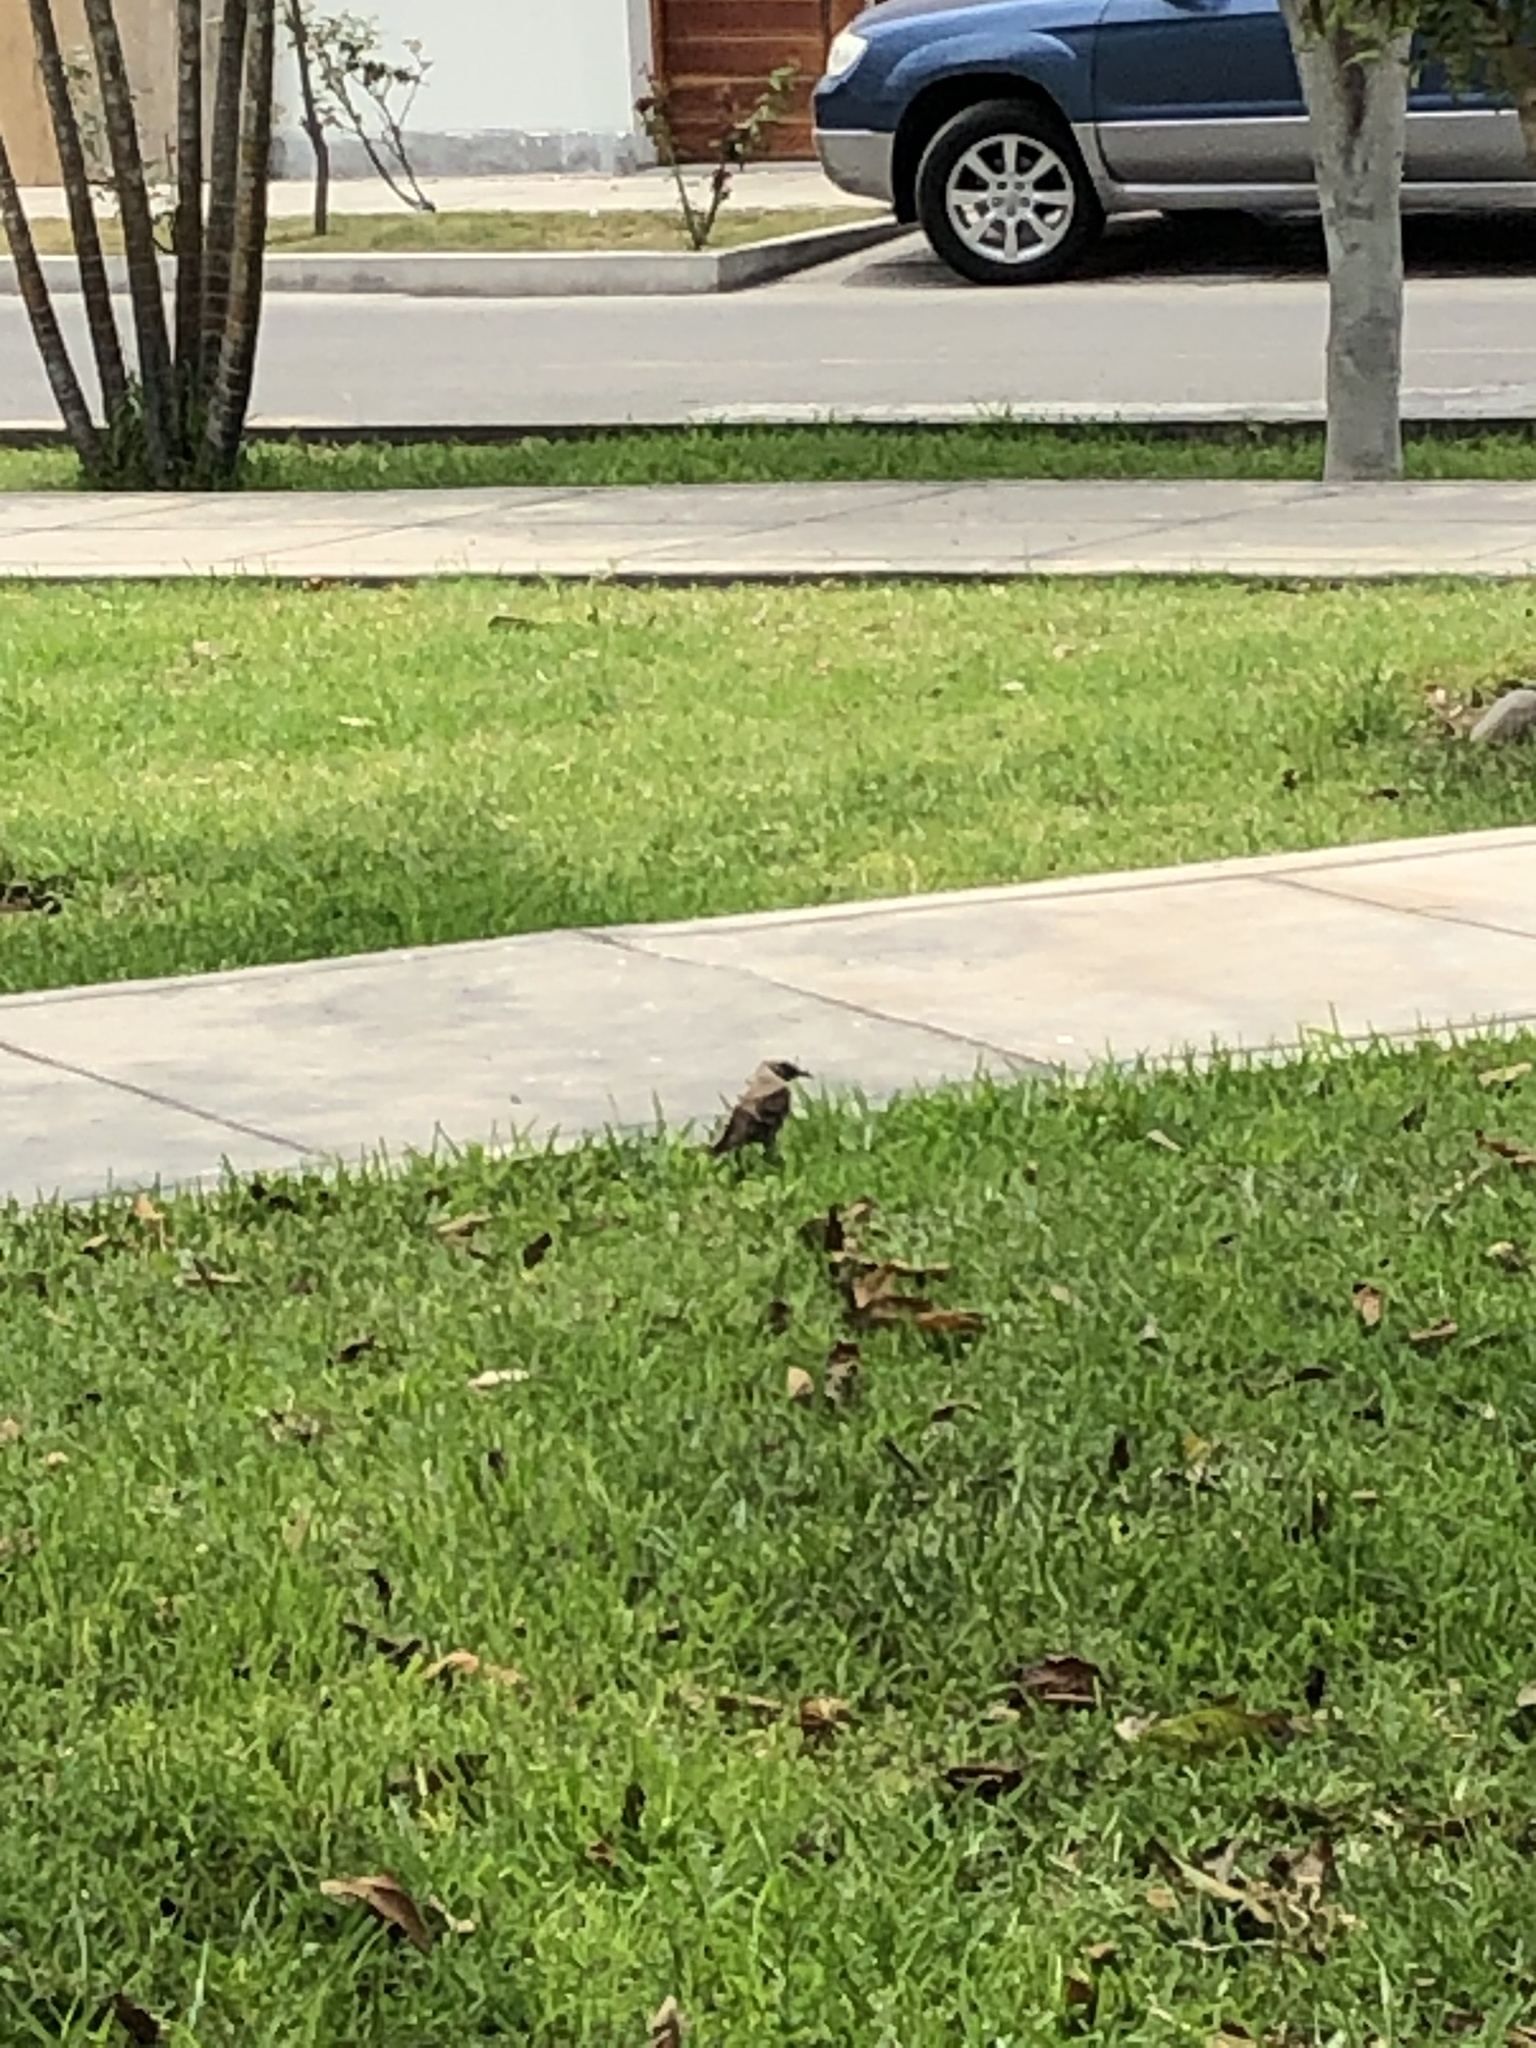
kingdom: Animalia
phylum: Chordata
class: Aves
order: Passeriformes
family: Mimidae
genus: Mimus
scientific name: Mimus longicaudatus
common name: Long-tailed mockingbird
